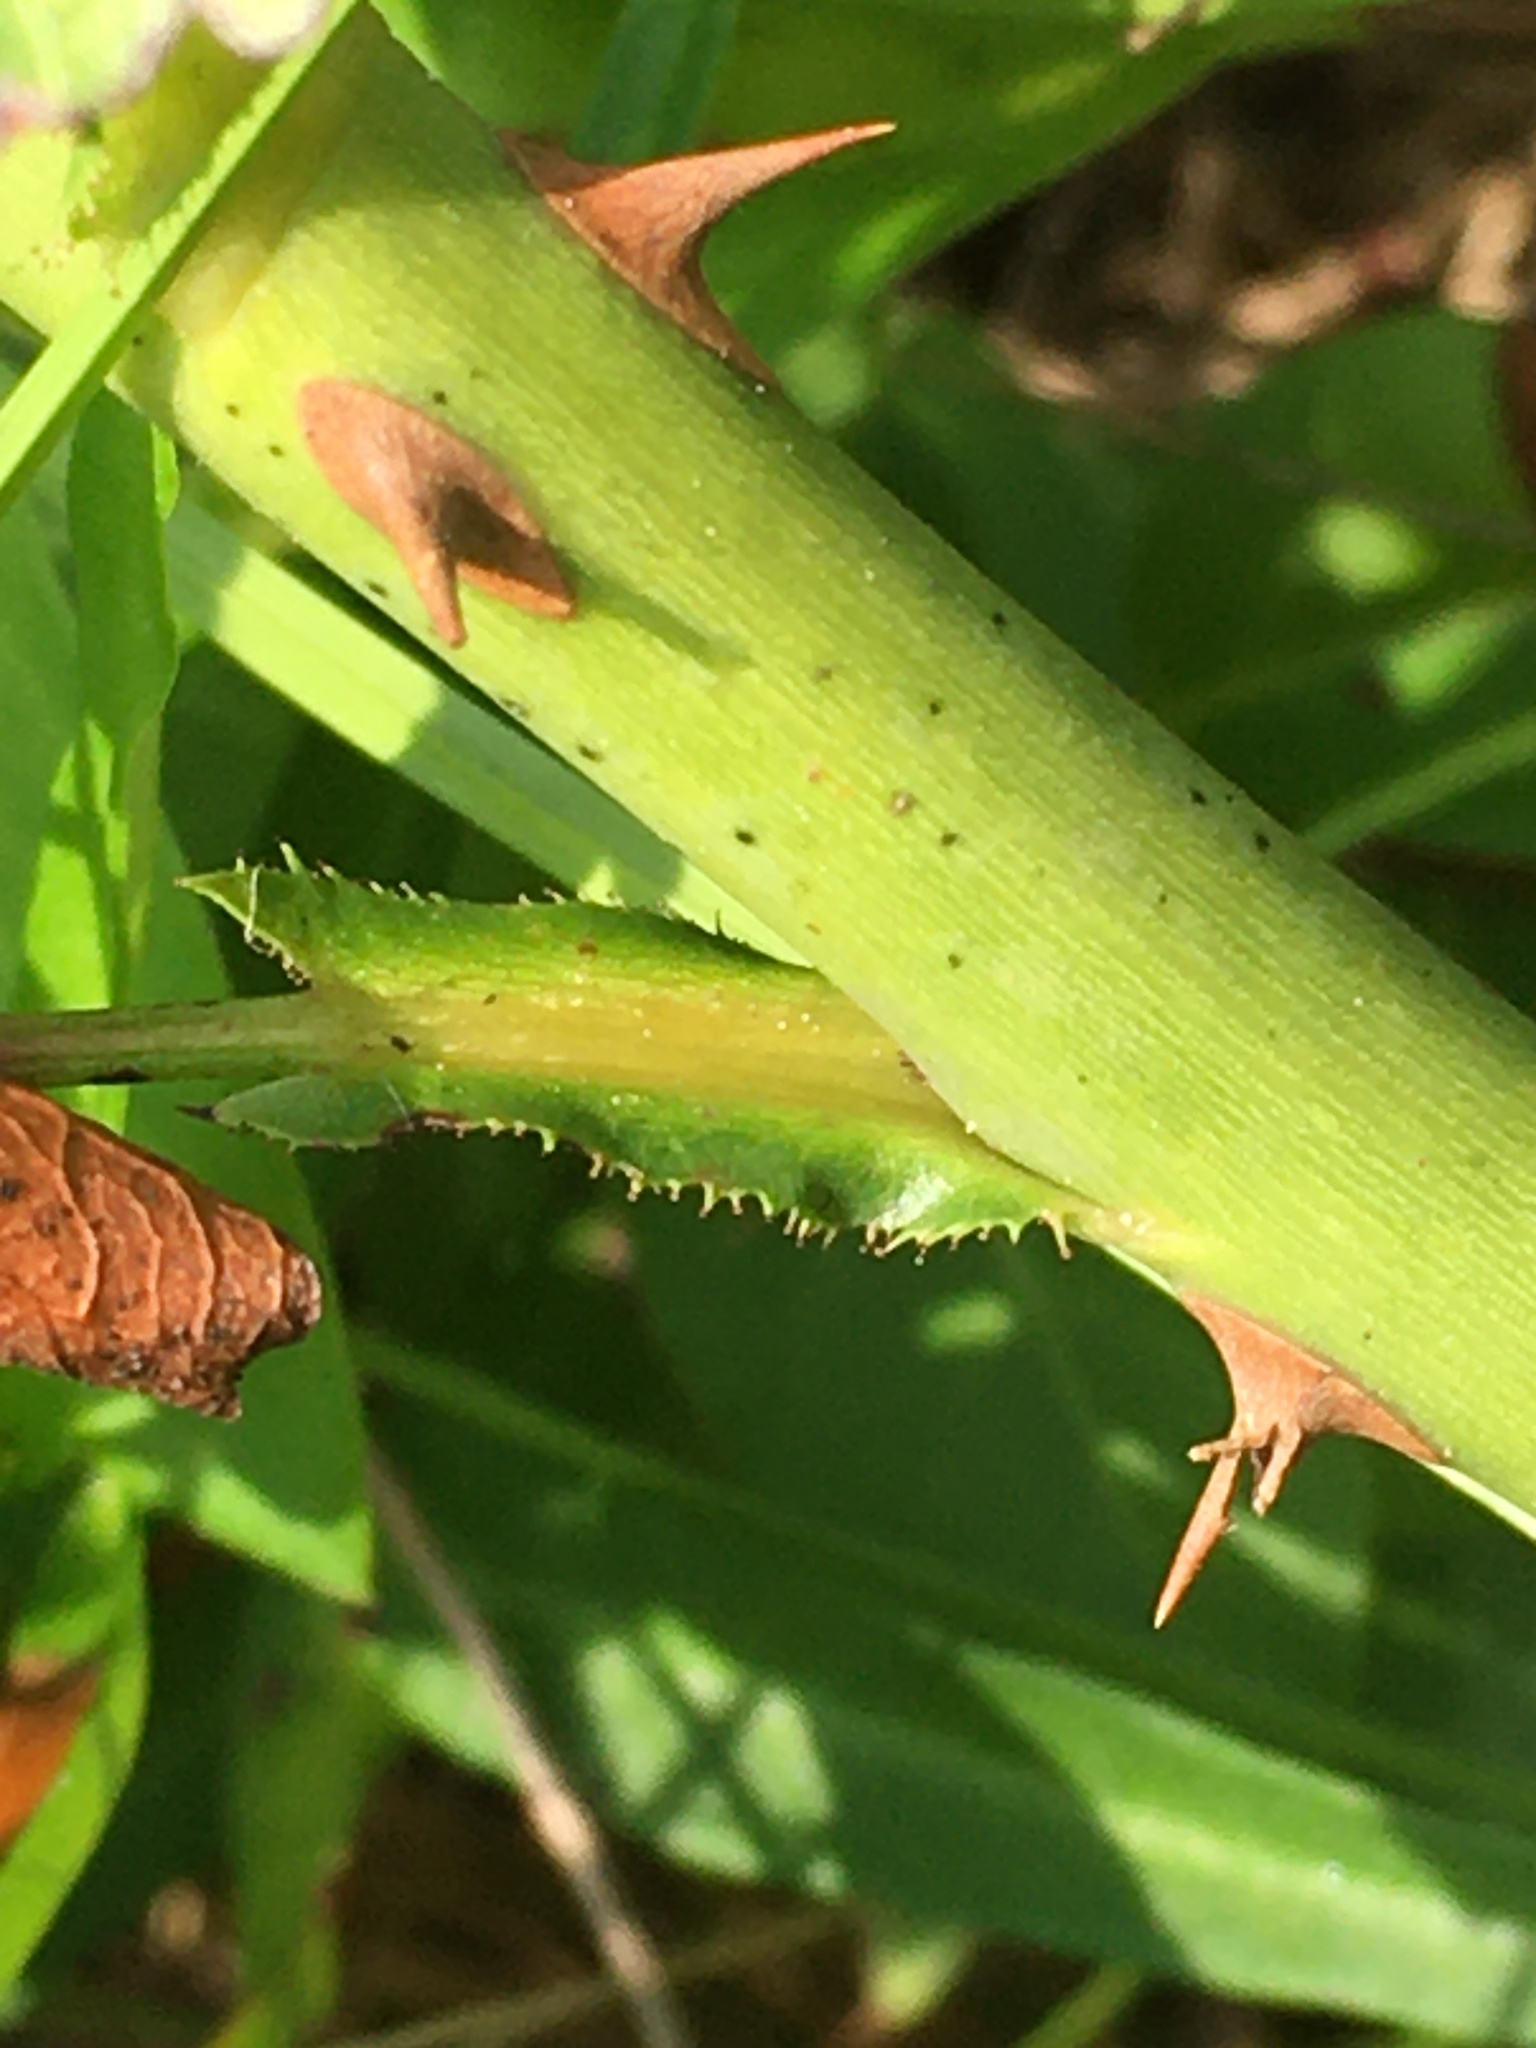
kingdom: Plantae
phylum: Tracheophyta
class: Magnoliopsida
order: Rosales
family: Rosaceae
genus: Rosa
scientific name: Rosa lucieae
